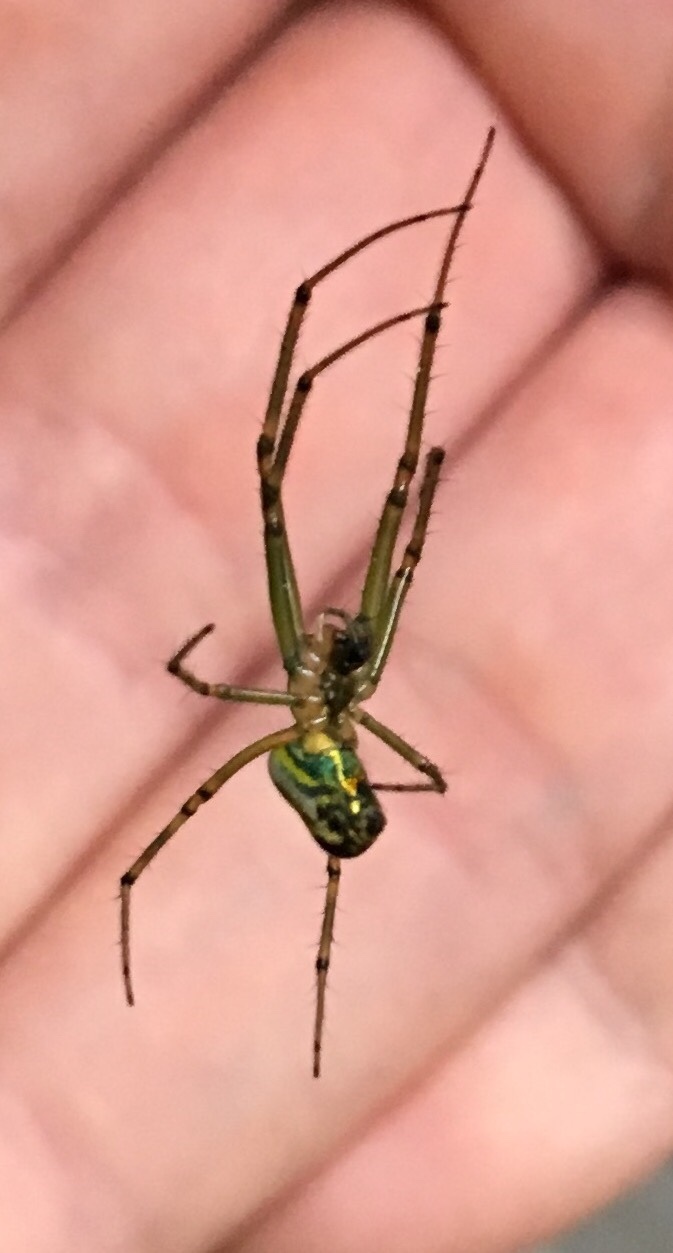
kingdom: Animalia
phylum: Arthropoda
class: Arachnida
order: Araneae
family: Tetragnathidae
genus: Leucauge
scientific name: Leucauge venusta
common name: Longjawed orb weavers
